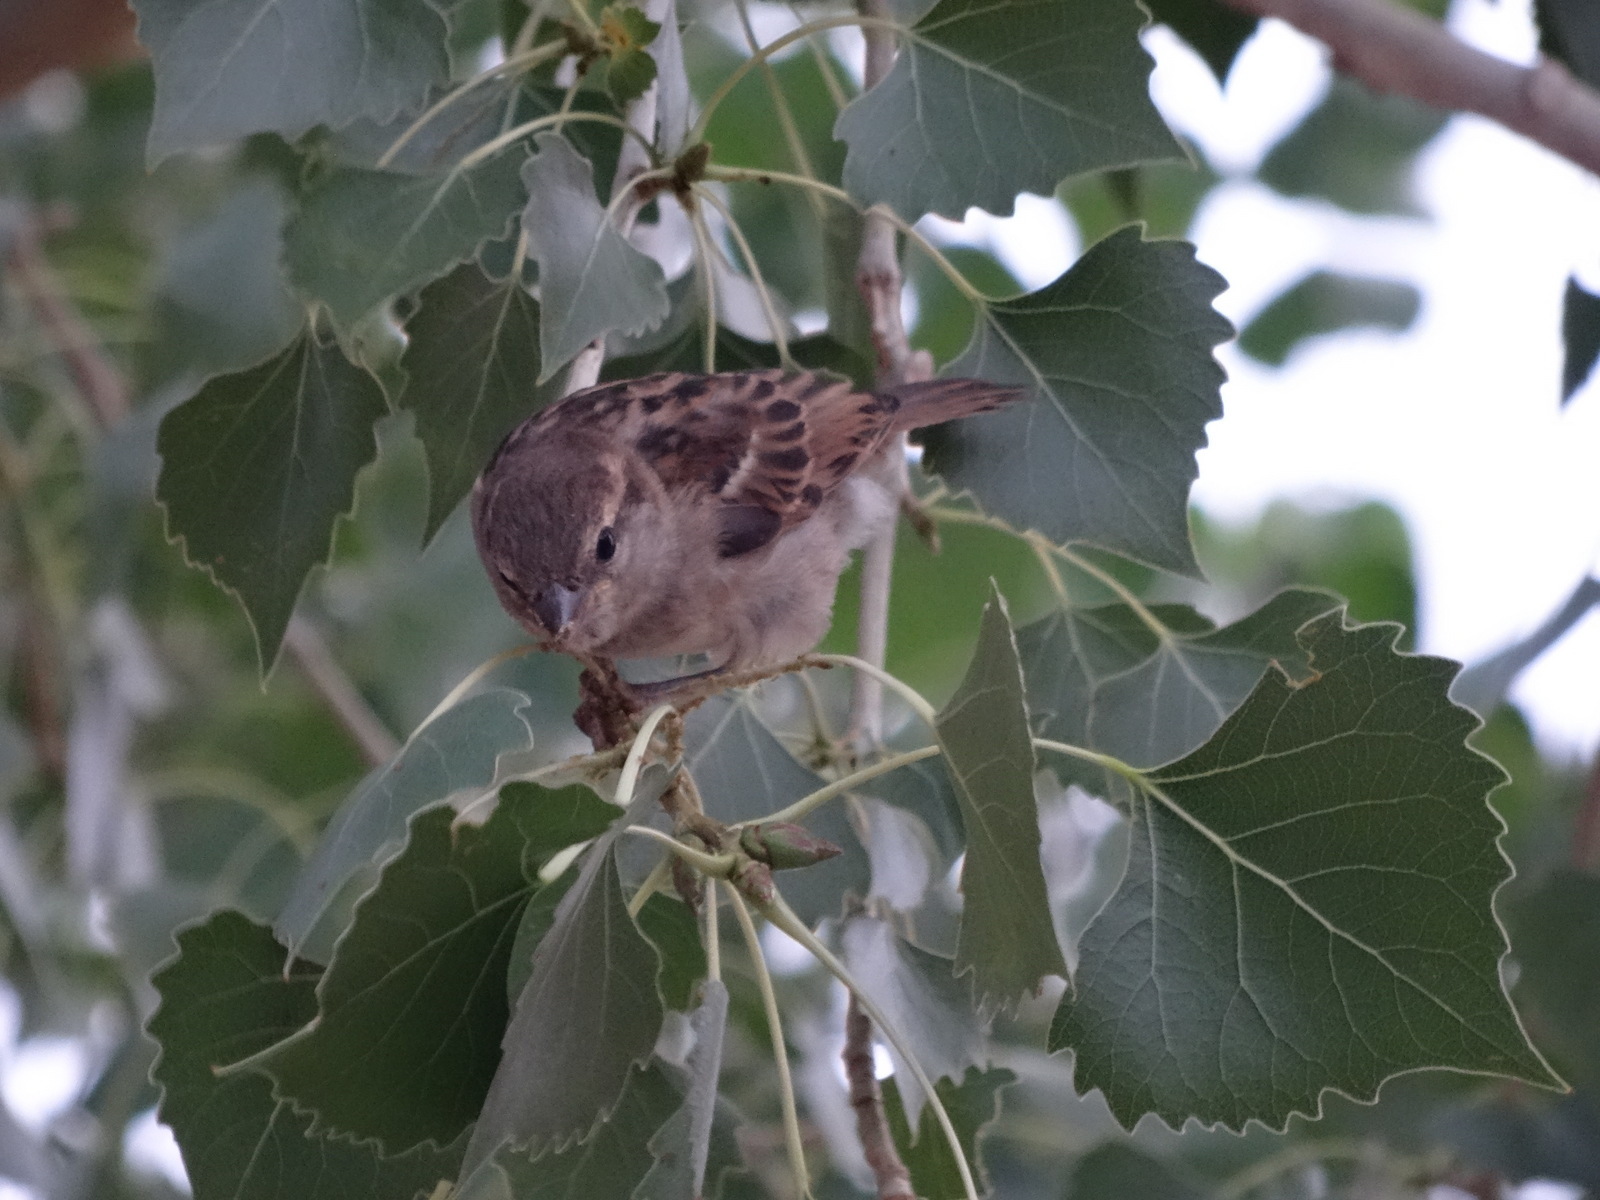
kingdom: Animalia
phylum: Chordata
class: Aves
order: Passeriformes
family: Passeridae
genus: Passer
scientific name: Passer domesticus
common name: House sparrow
